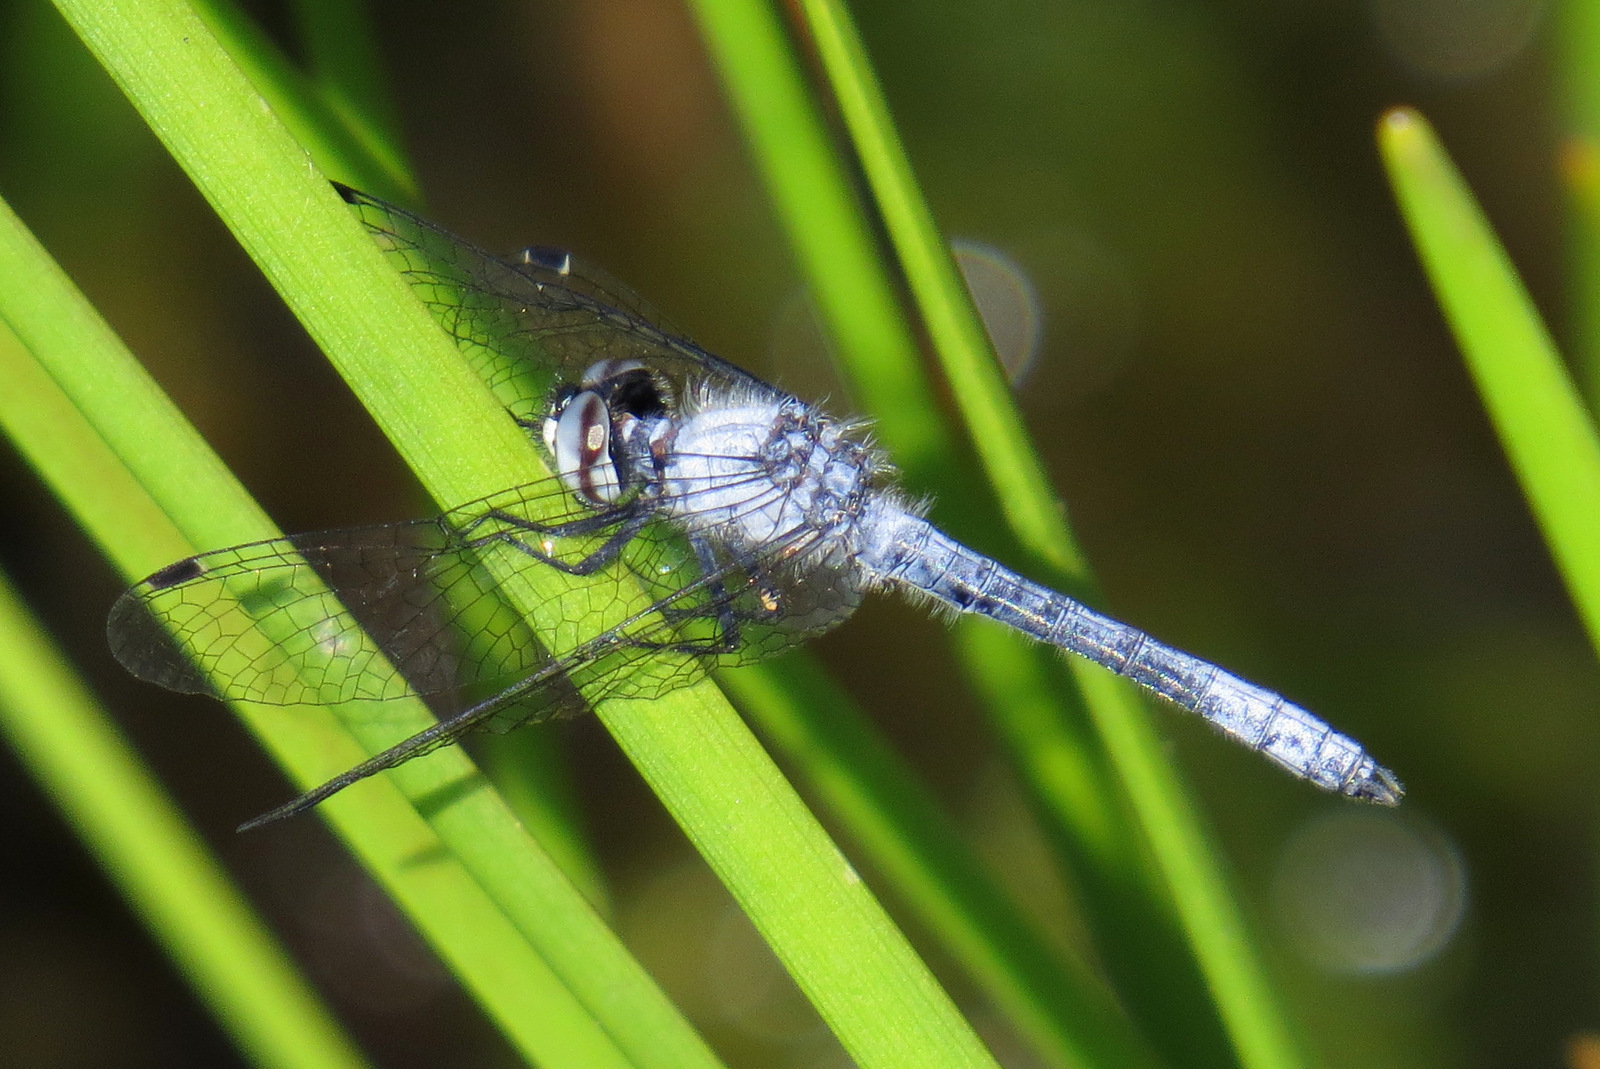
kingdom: Animalia
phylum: Arthropoda
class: Insecta
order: Odonata
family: Libellulidae
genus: Nannothemis
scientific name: Nannothemis bella
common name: Elfin skimmer
